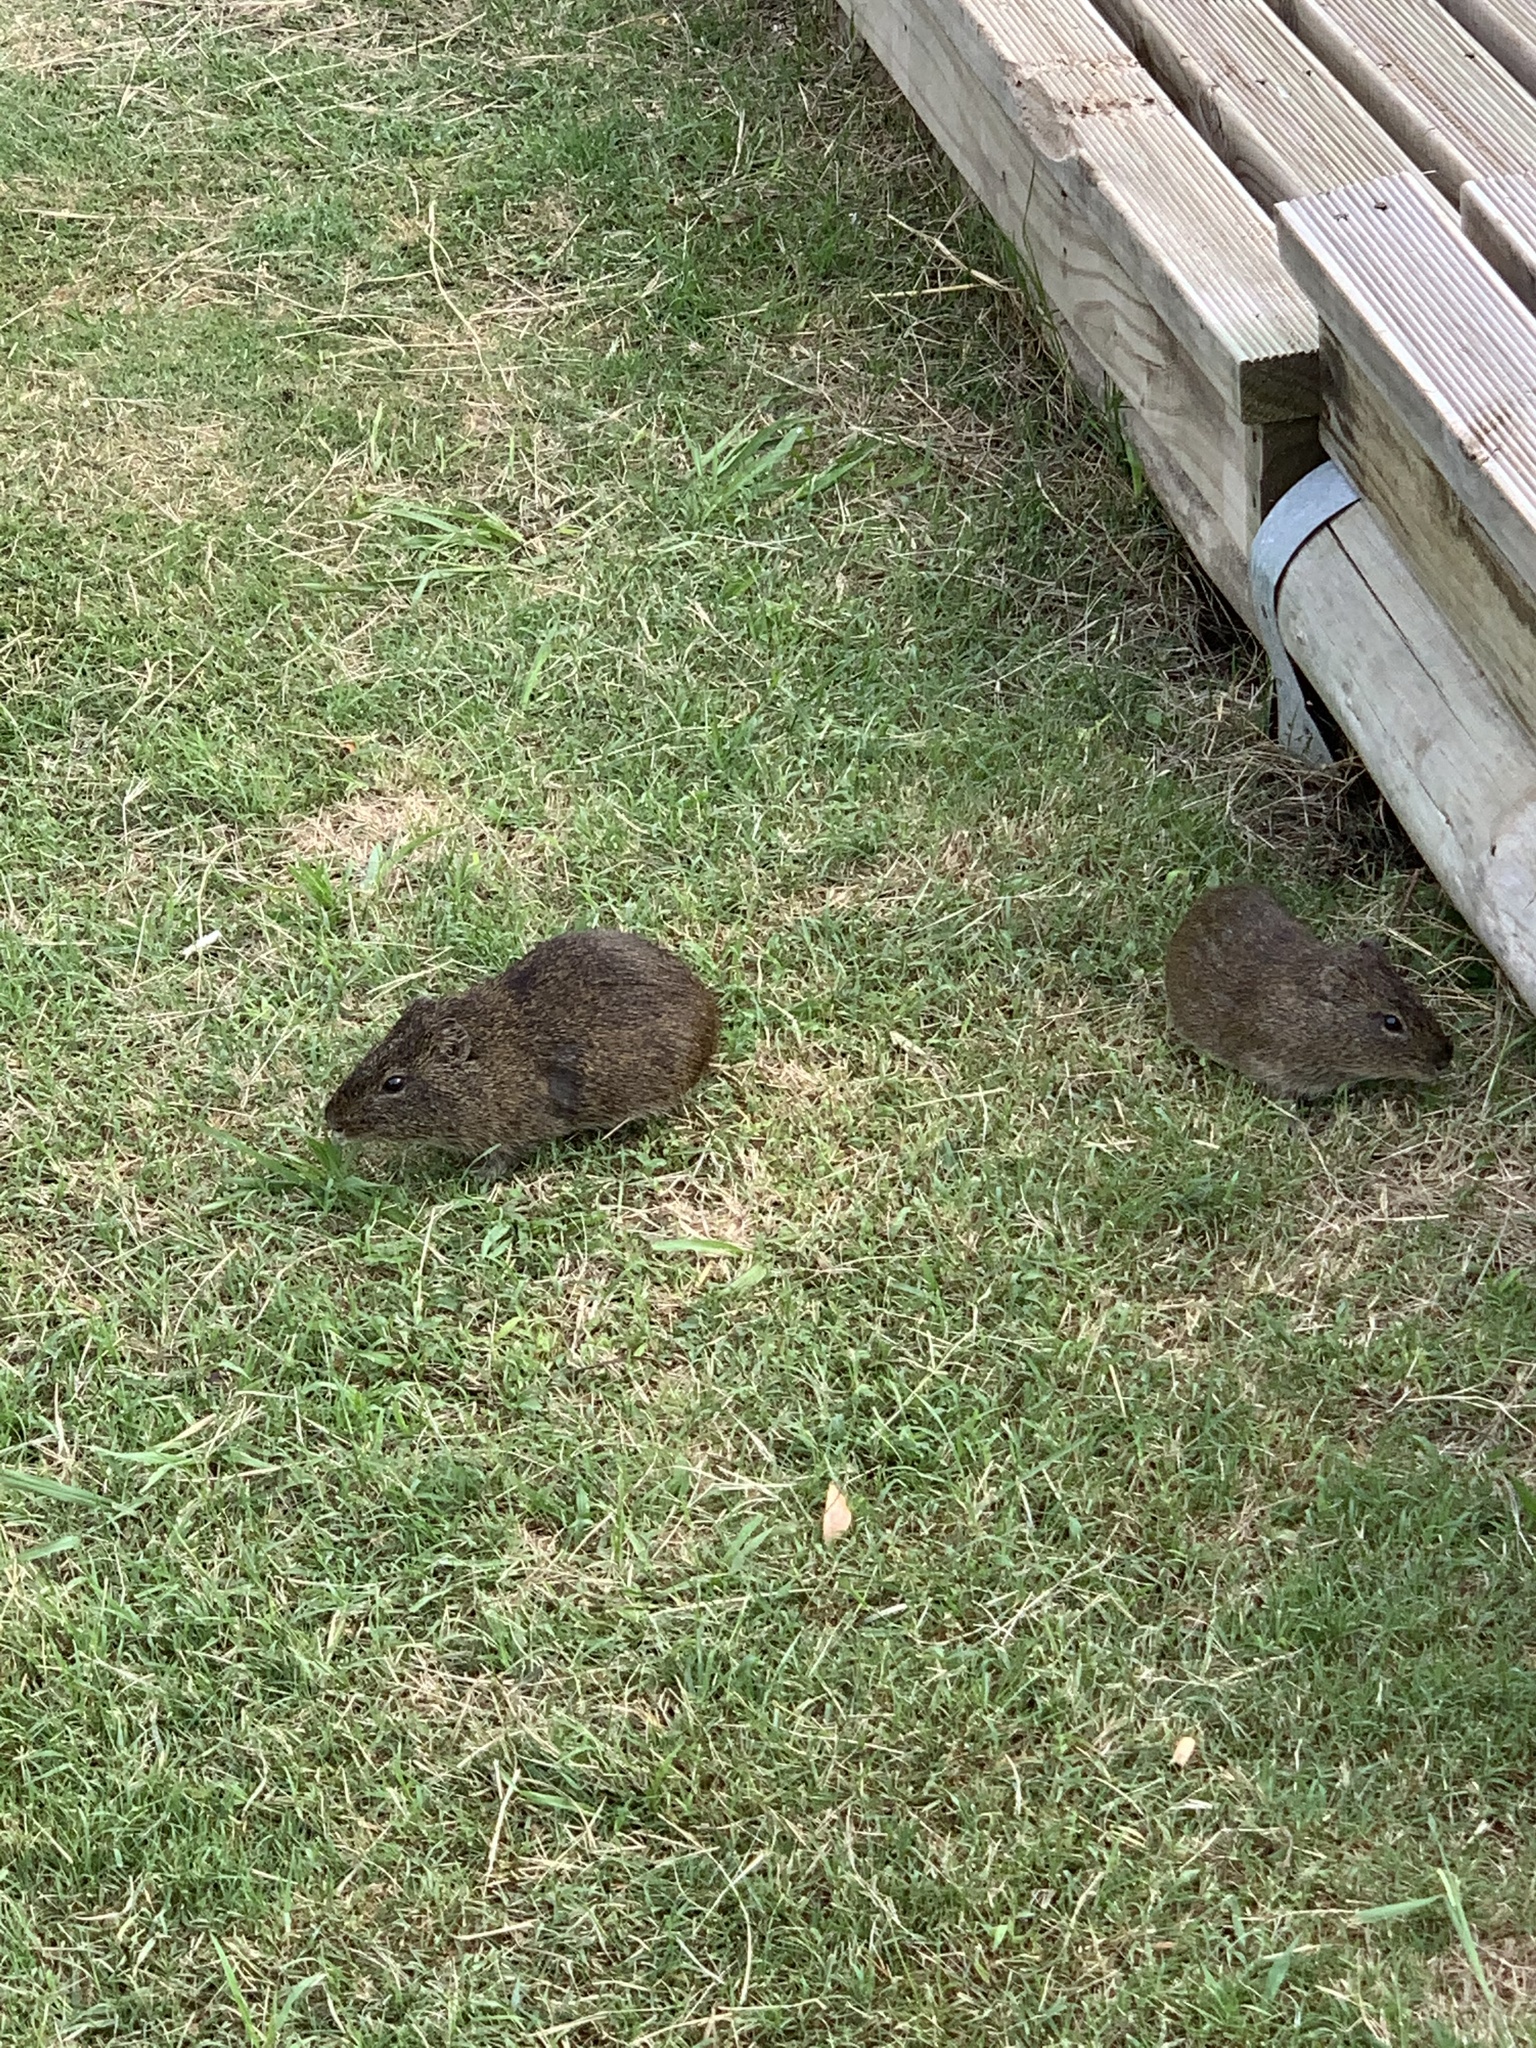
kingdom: Animalia
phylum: Chordata
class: Mammalia
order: Rodentia
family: Caviidae
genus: Cavia
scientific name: Cavia aperea
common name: Brazilian guinea pig
